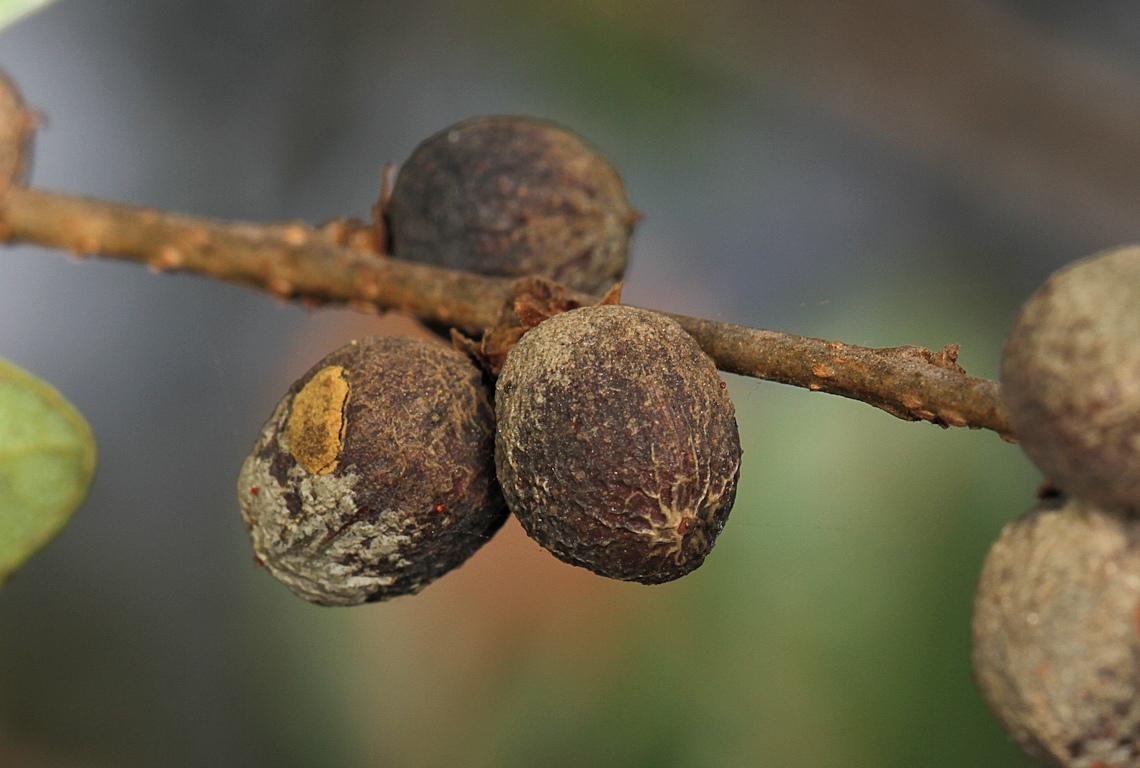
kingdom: Plantae
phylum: Tracheophyta
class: Magnoliopsida
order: Malpighiales
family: Phyllanthaceae
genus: Bridelia
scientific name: Bridelia cathartica
